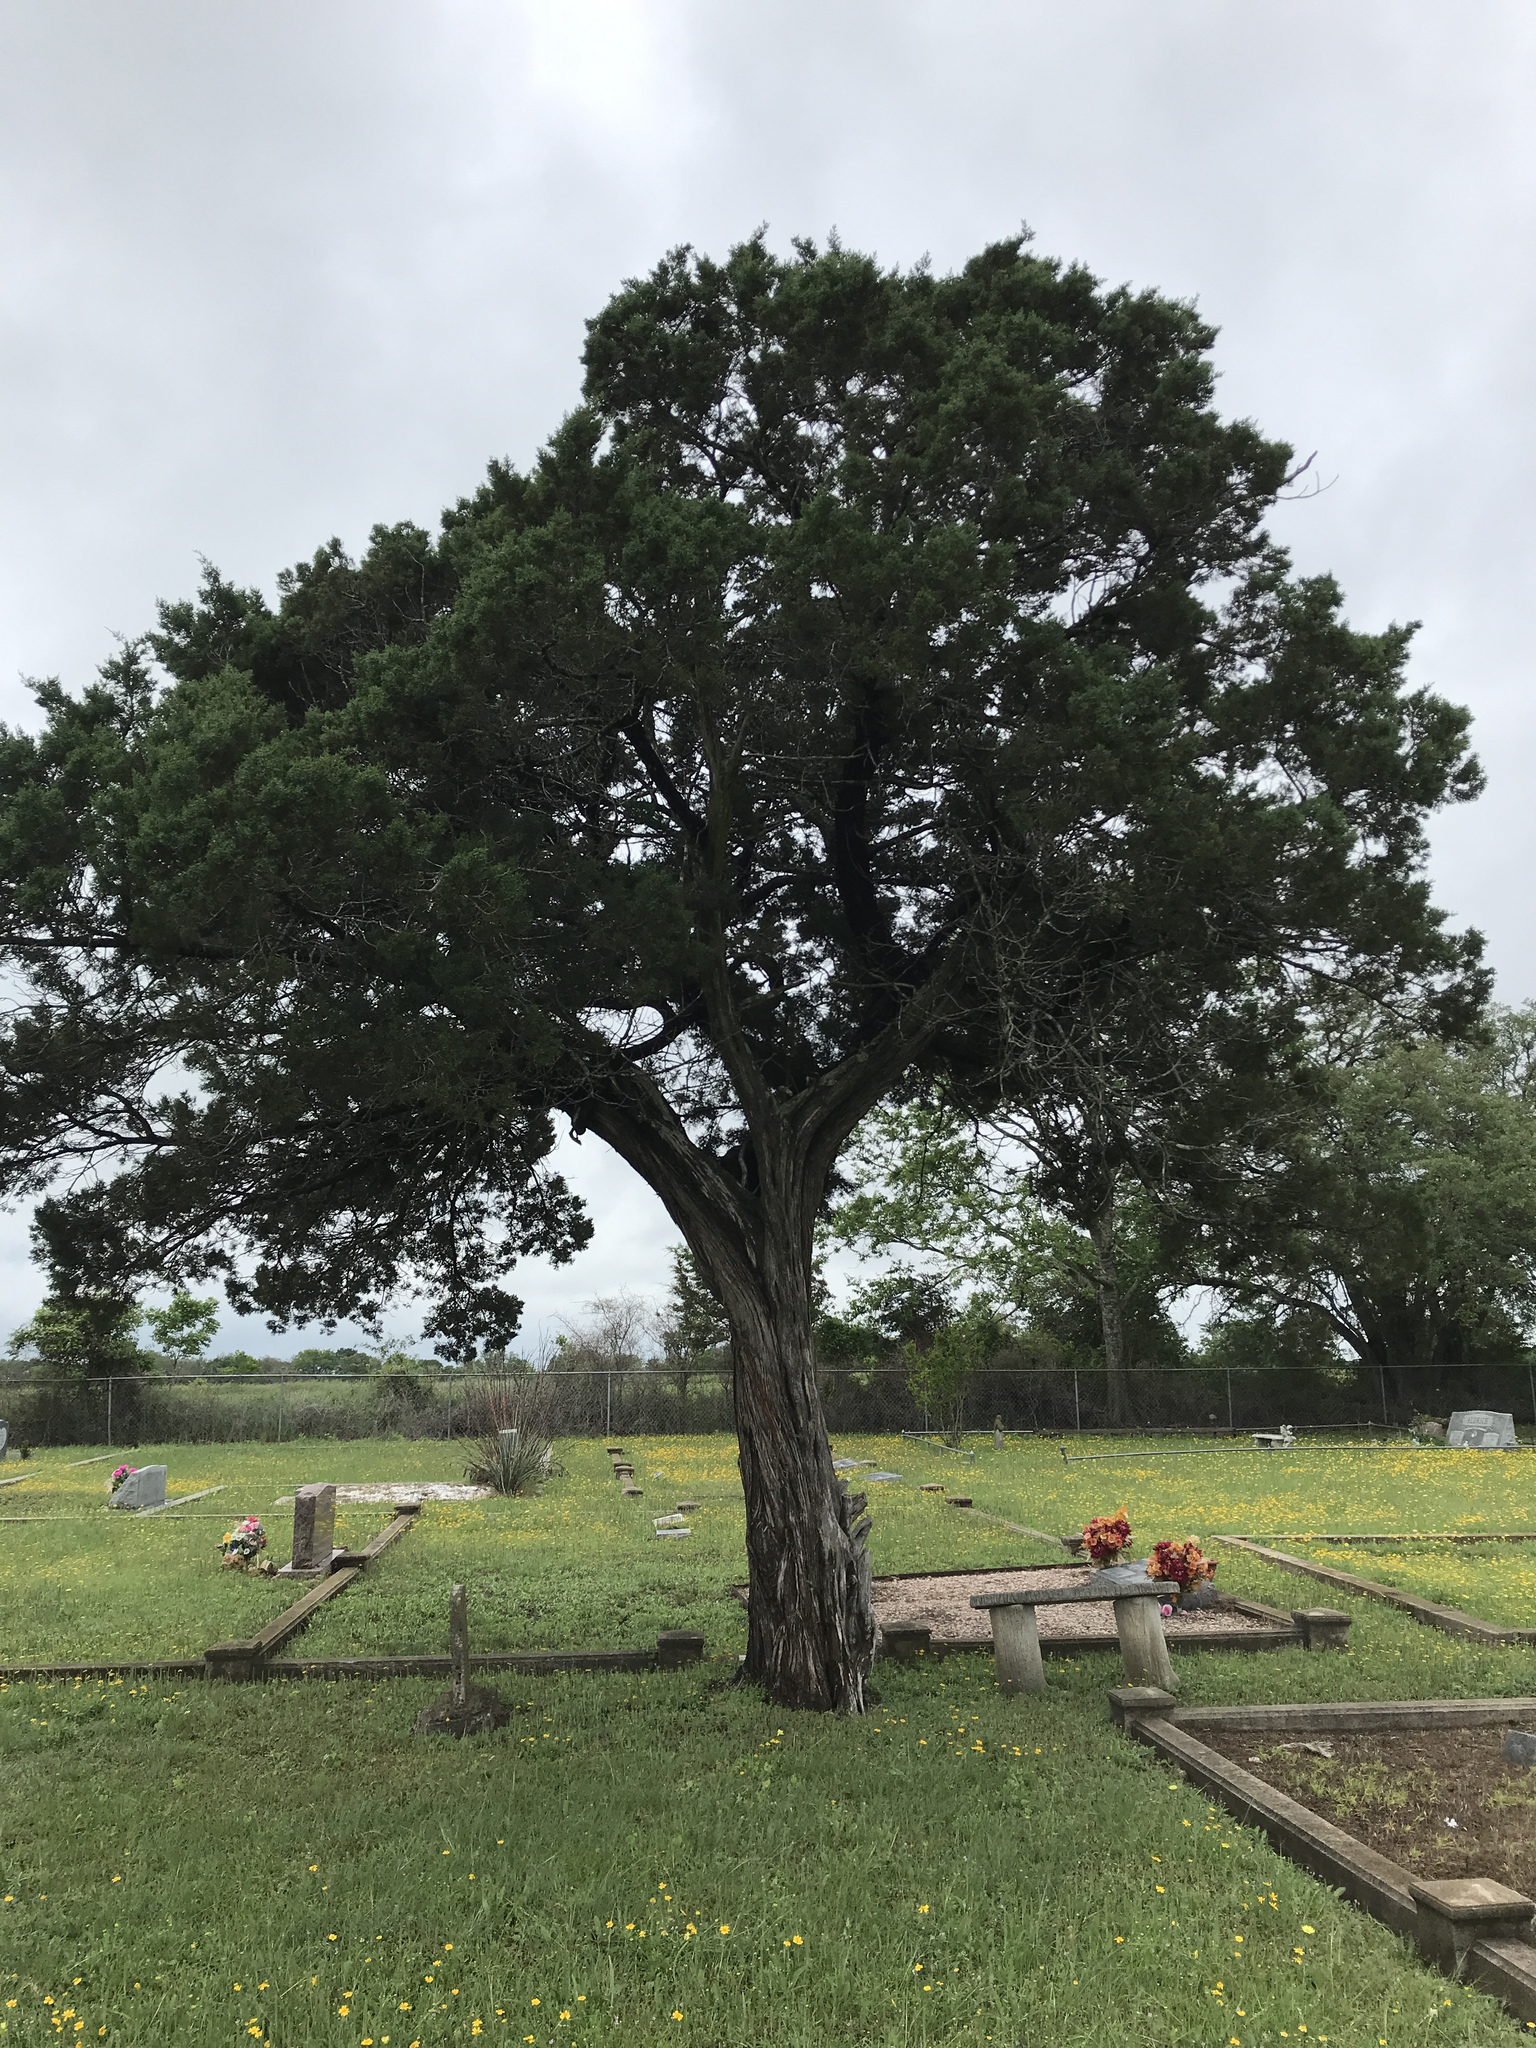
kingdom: Plantae
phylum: Tracheophyta
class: Pinopsida
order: Pinales
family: Cupressaceae
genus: Juniperus
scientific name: Juniperus ashei
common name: Mexican juniper
